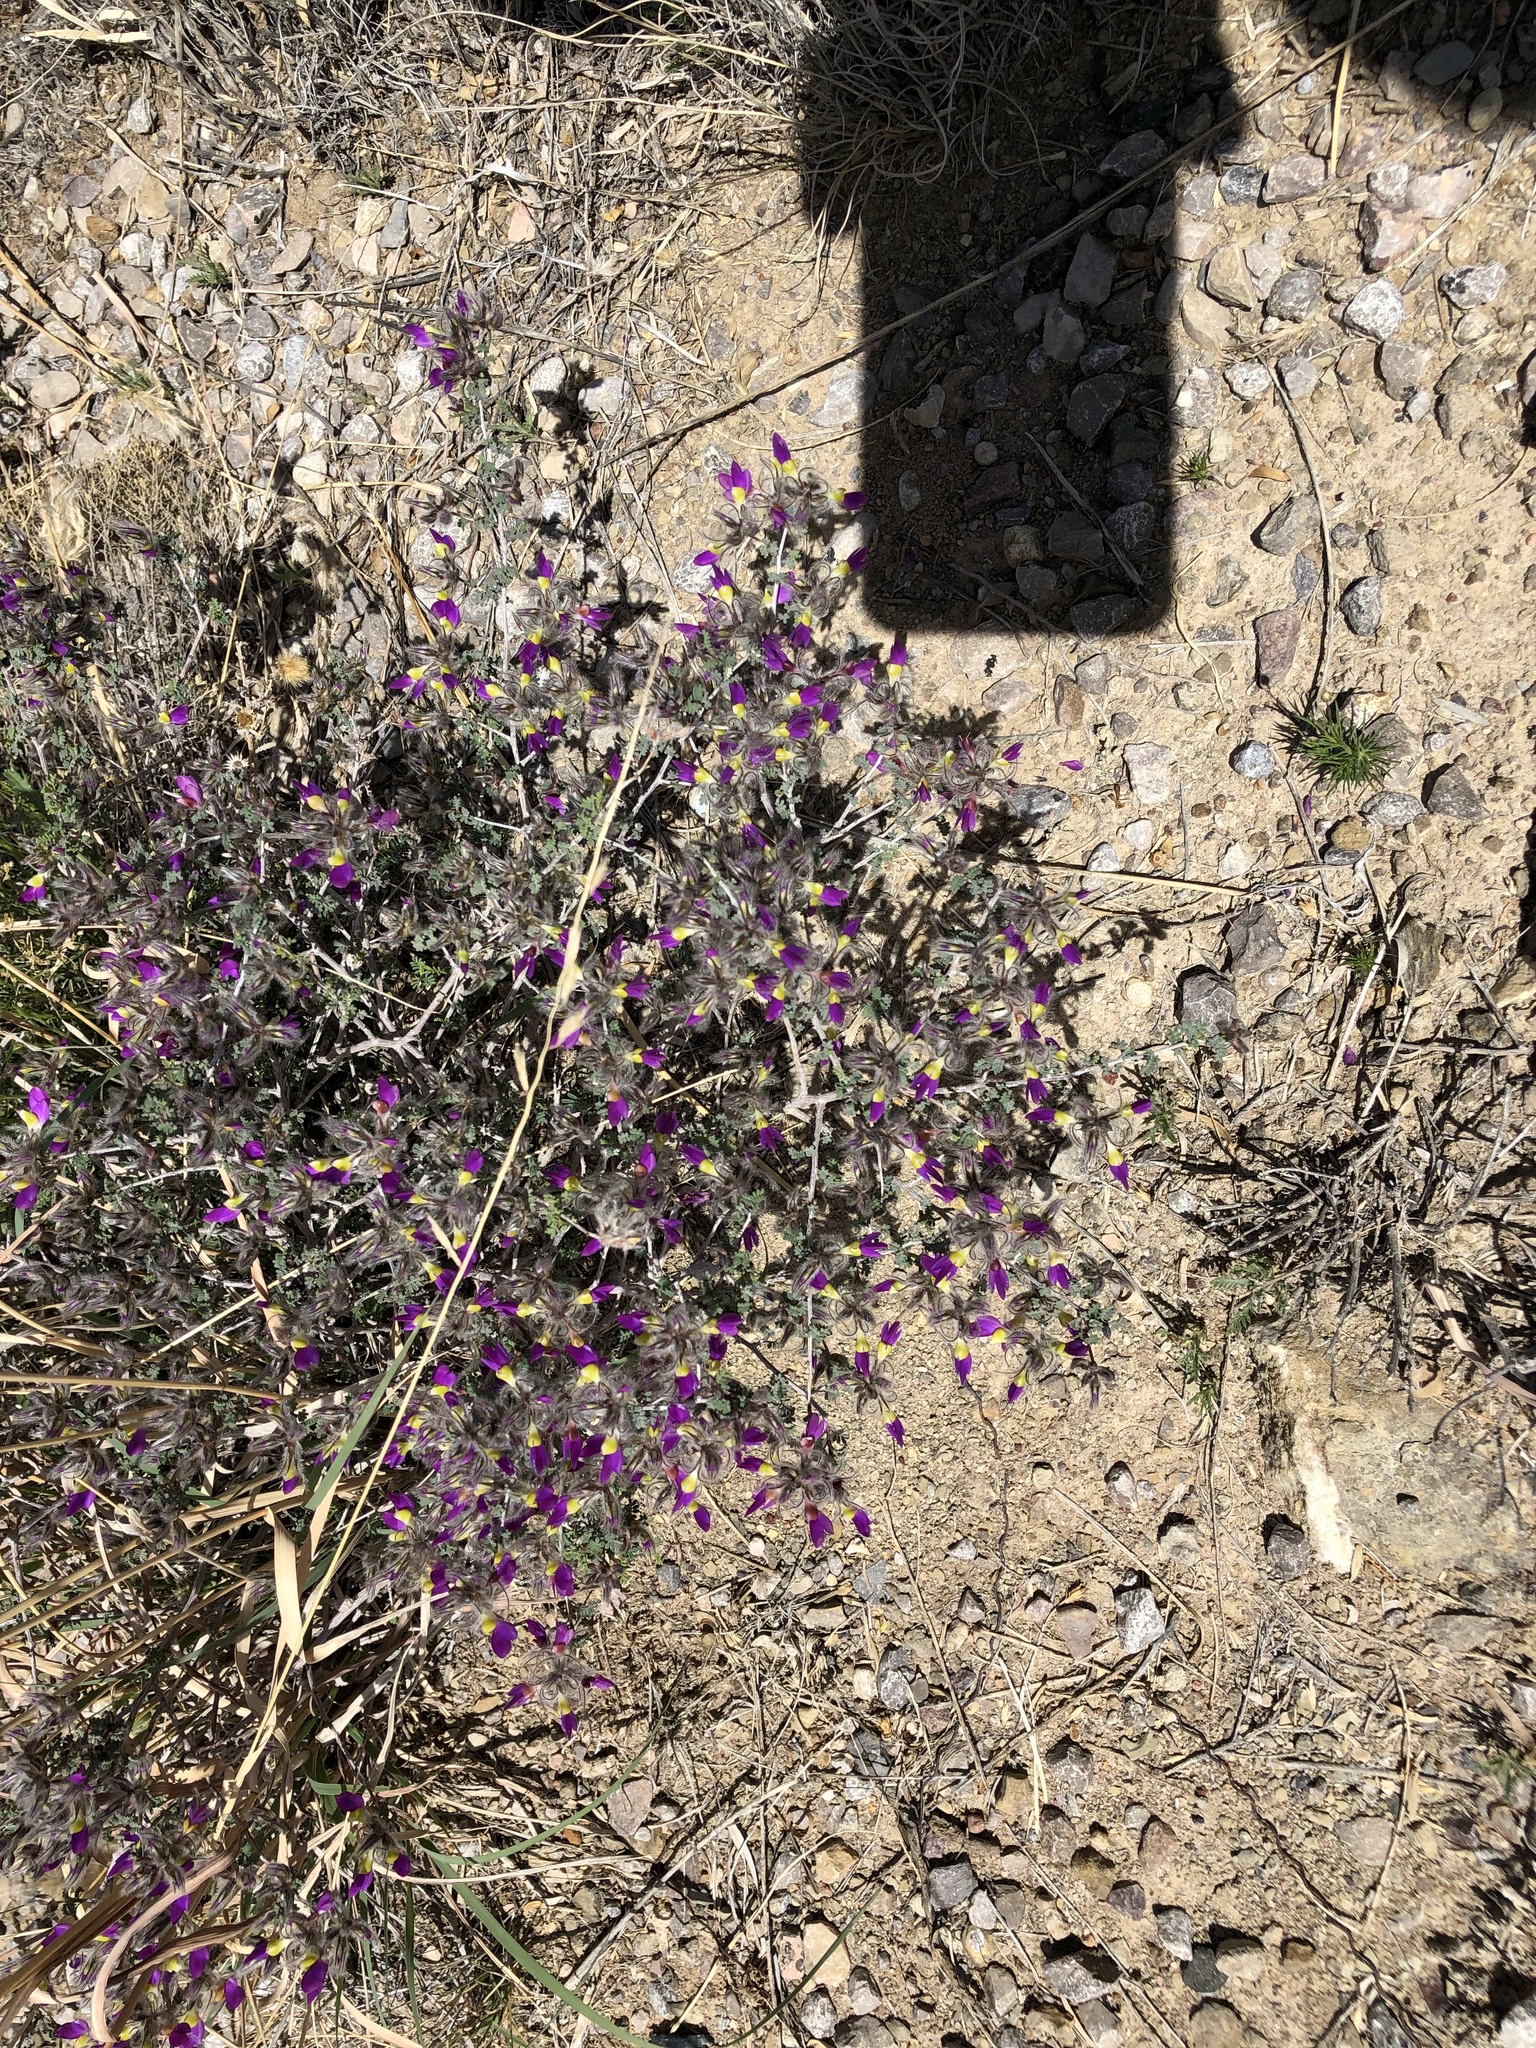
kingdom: Plantae
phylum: Tracheophyta
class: Magnoliopsida
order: Fabales
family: Fabaceae
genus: Dalea
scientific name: Dalea formosa
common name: Feather-plume dalea
